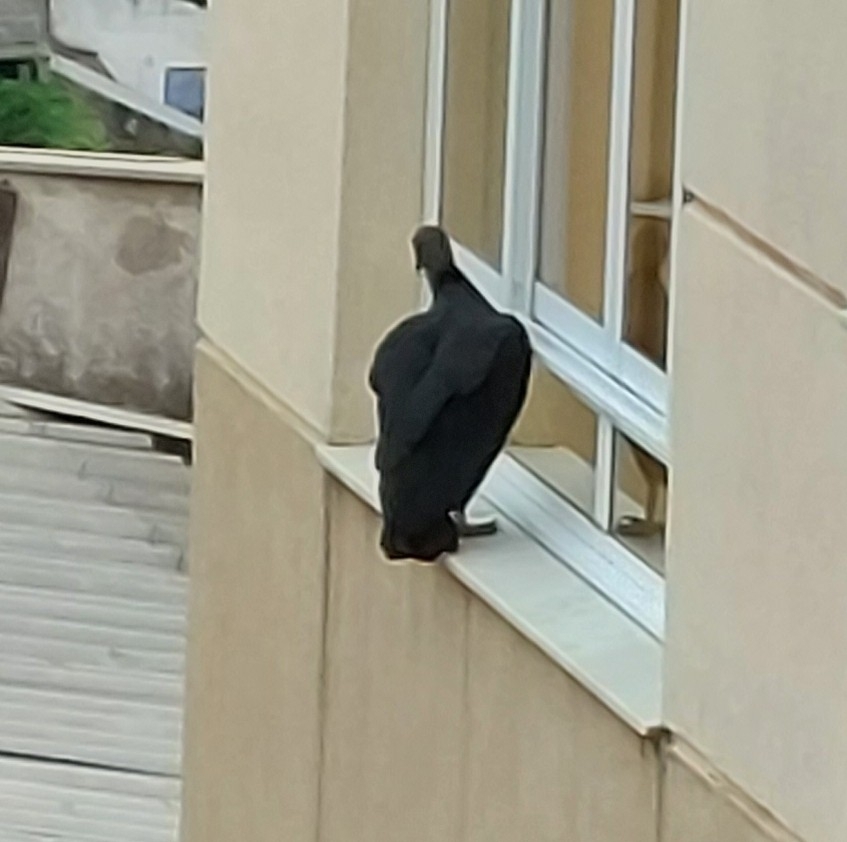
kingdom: Animalia
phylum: Chordata
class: Aves
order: Accipitriformes
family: Cathartidae
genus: Coragyps
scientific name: Coragyps atratus
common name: Black vulture
